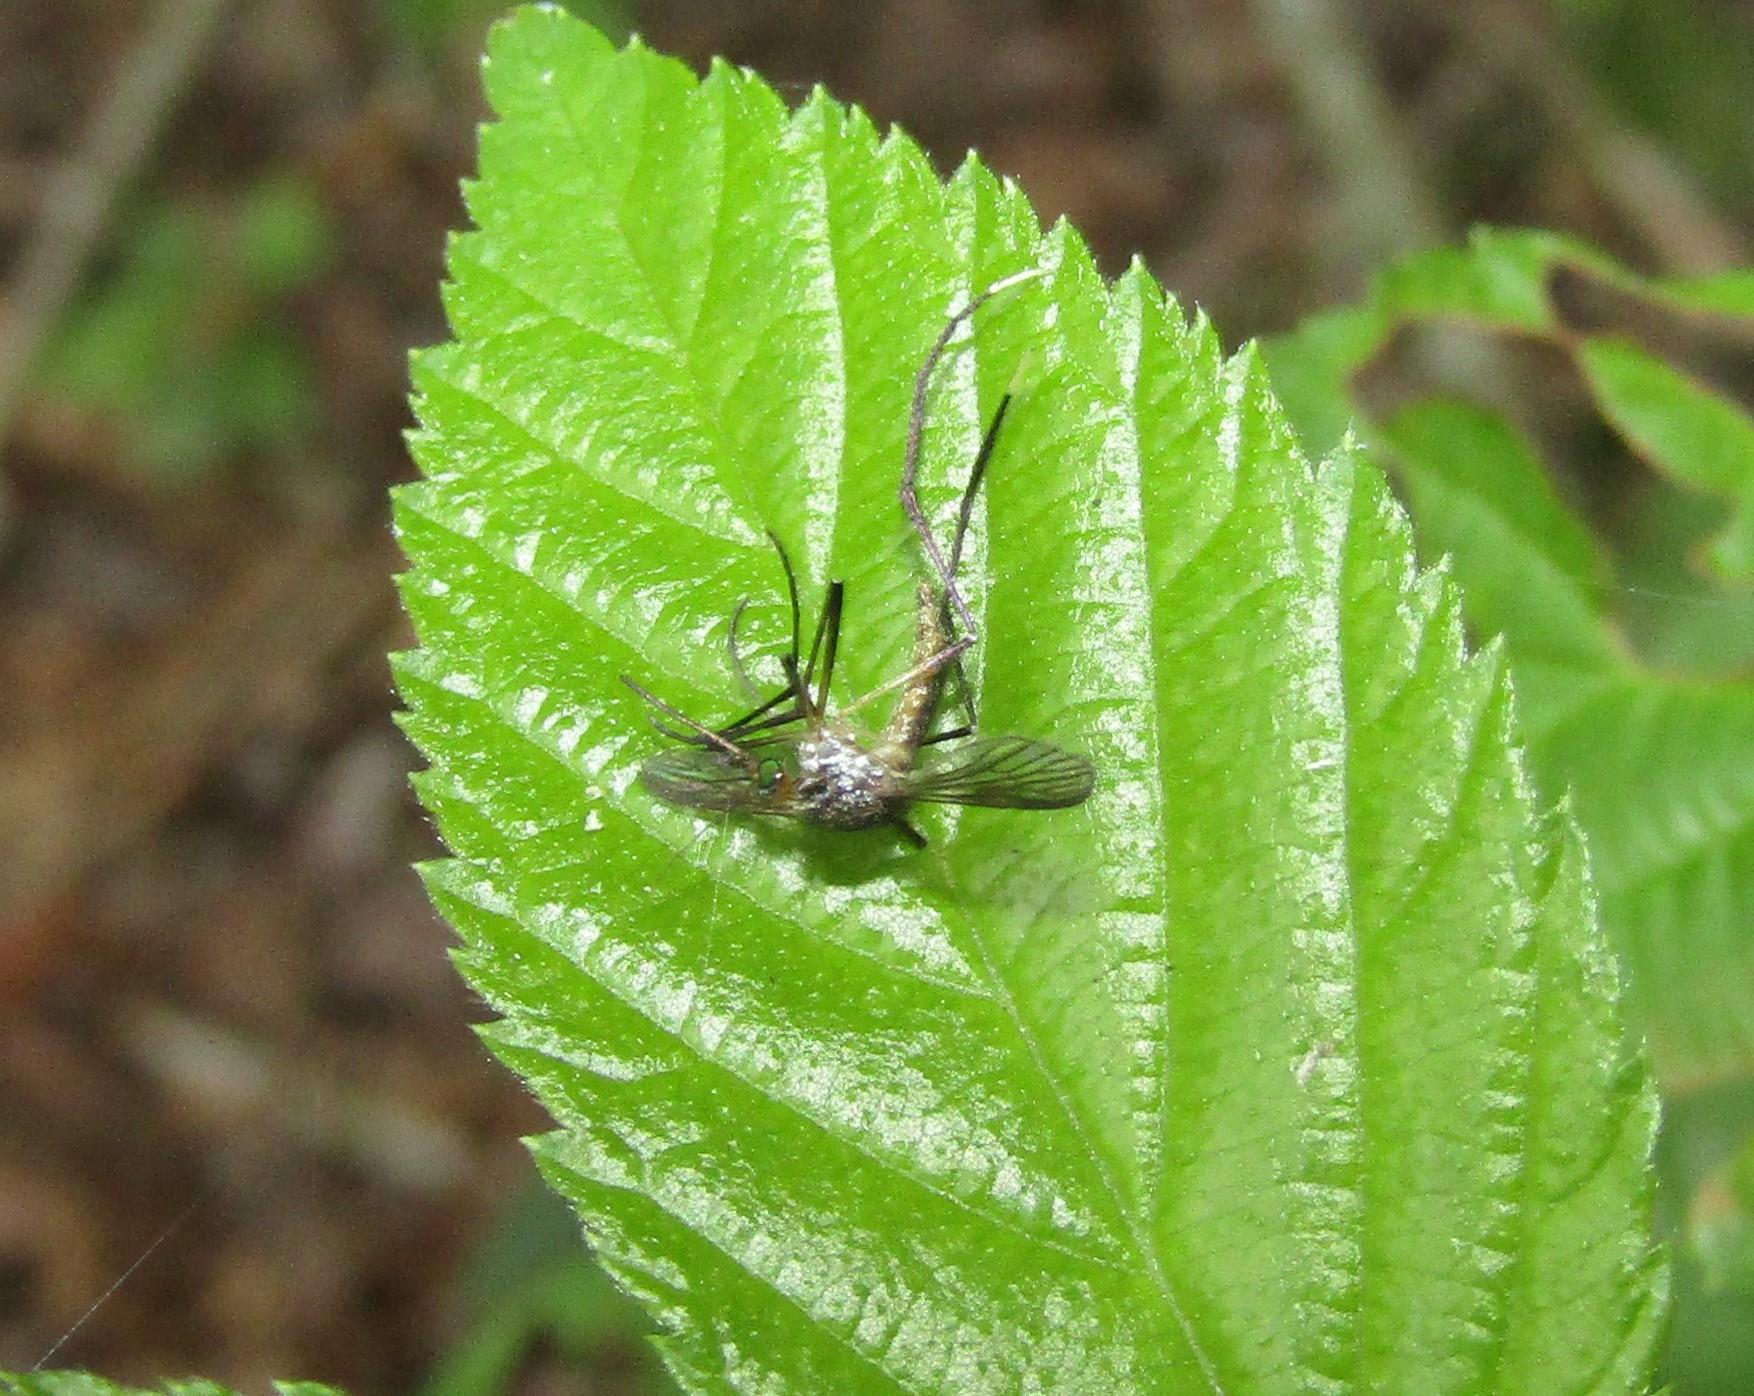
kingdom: Animalia
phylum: Arthropoda
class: Insecta
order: Diptera
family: Culicidae
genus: Psorophora
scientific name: Psorophora ferox
